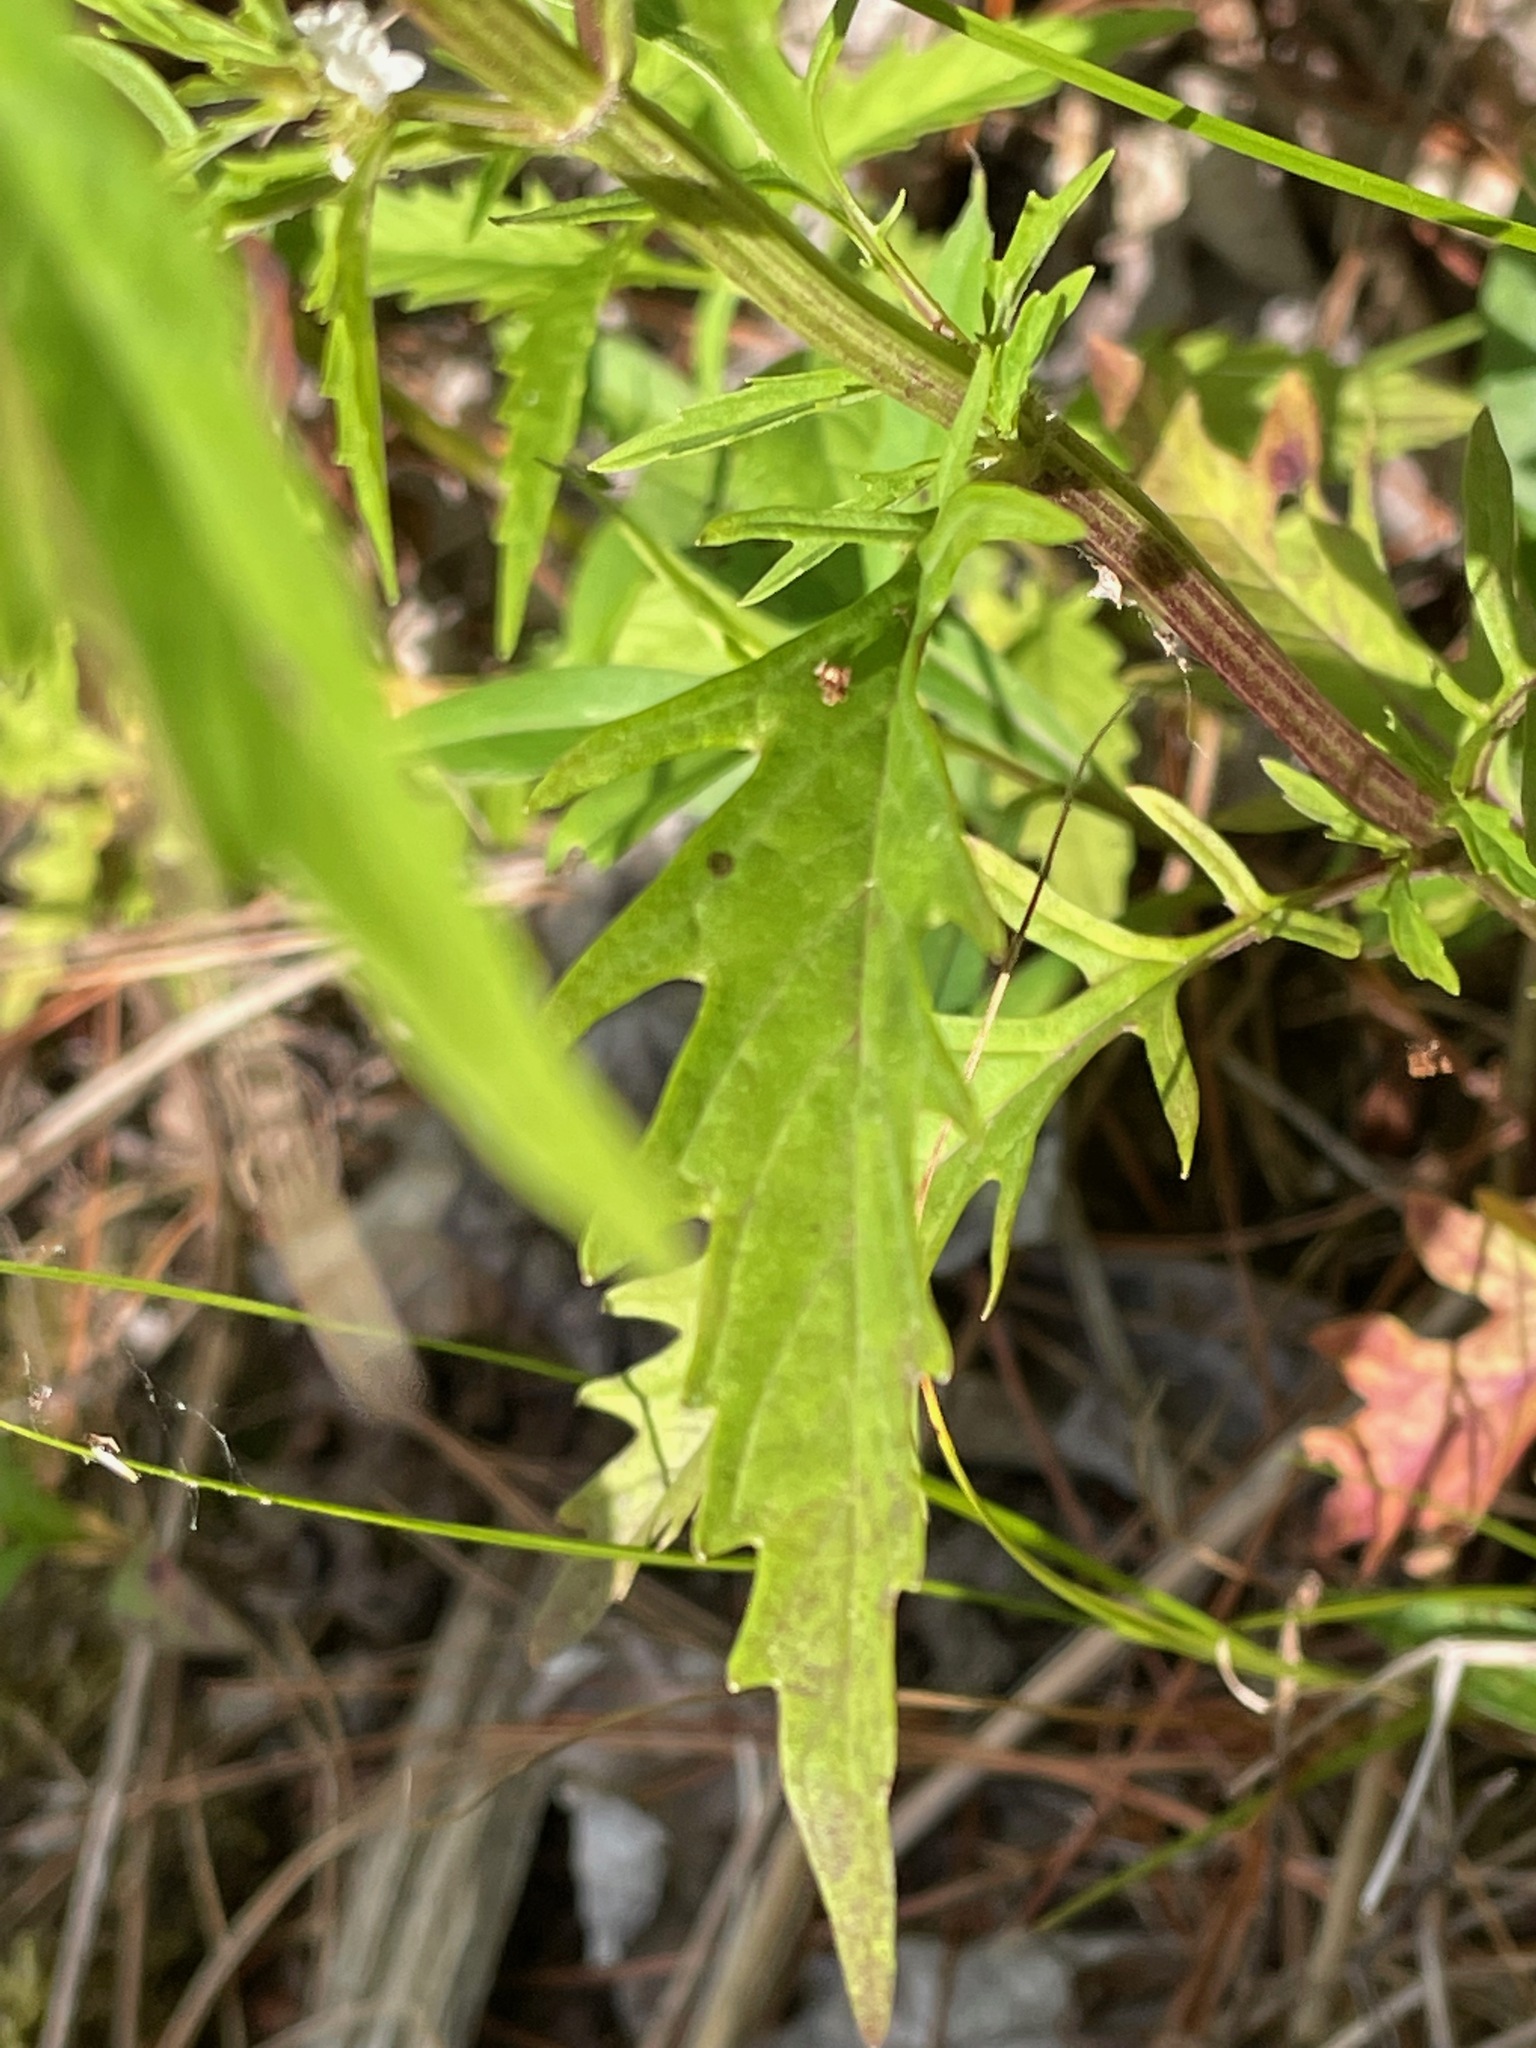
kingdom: Plantae
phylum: Tracheophyta
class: Magnoliopsida
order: Lamiales
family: Lamiaceae
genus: Lycopus
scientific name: Lycopus americanus
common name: American bugleweed
